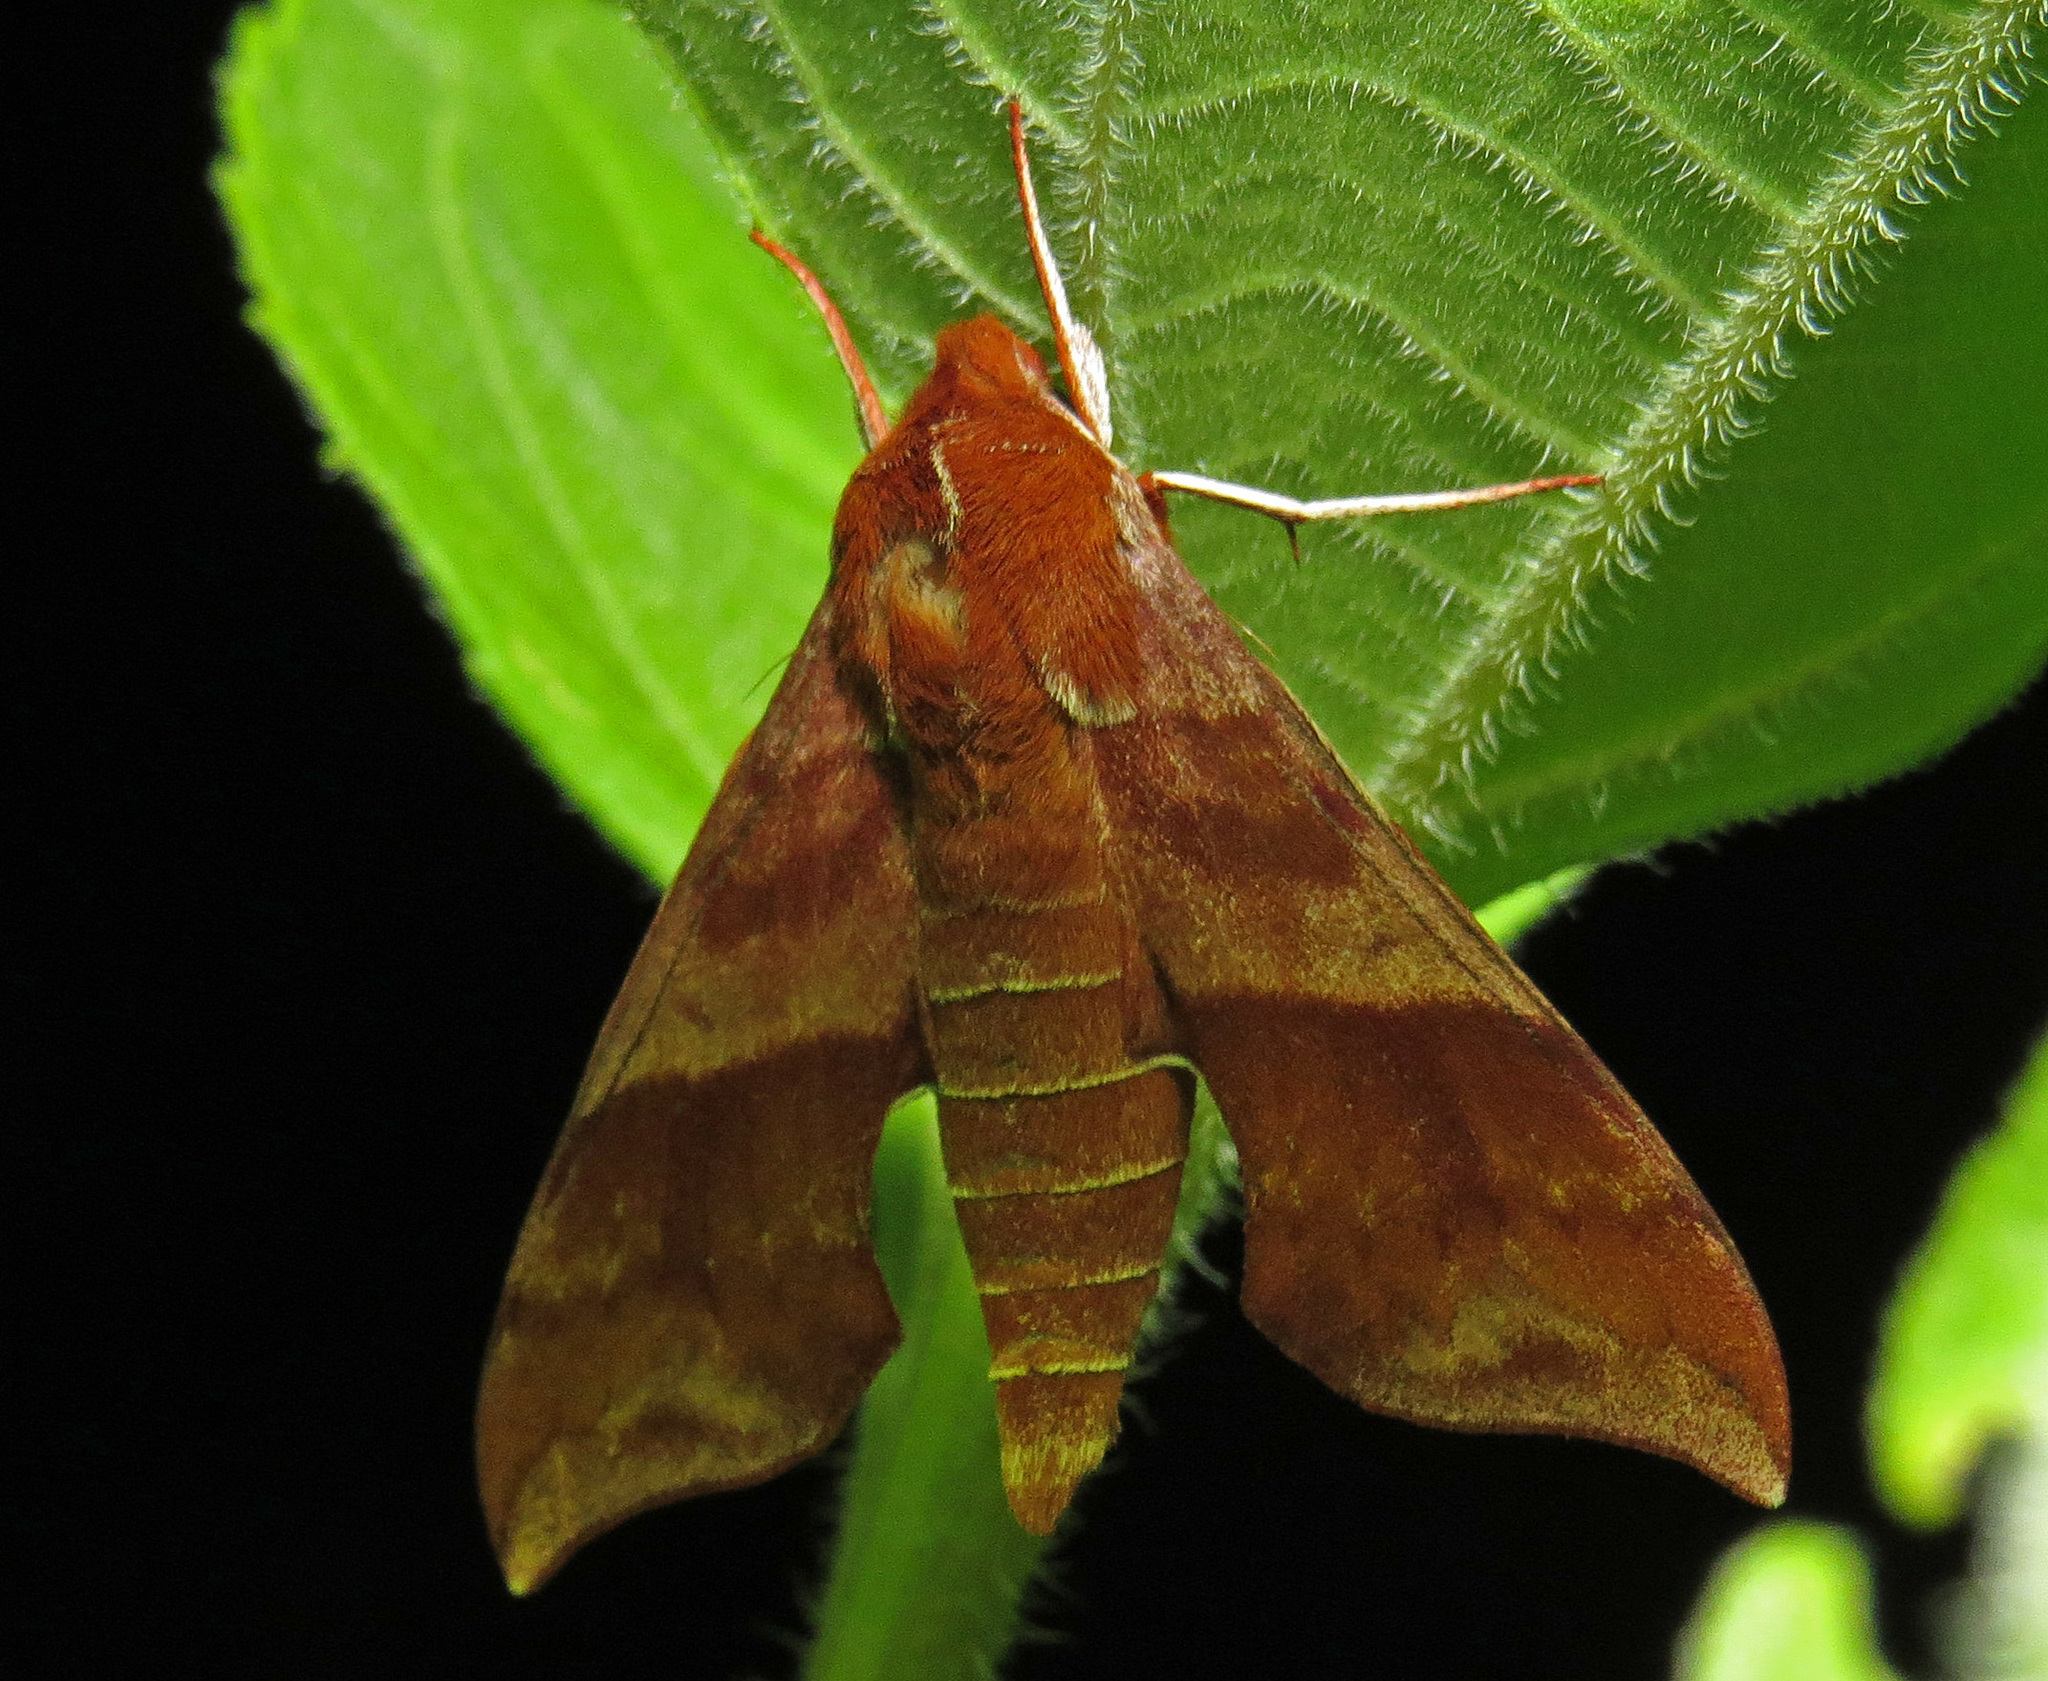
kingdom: Animalia
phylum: Arthropoda
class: Insecta
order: Lepidoptera
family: Sphingidae
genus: Darapsa
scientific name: Darapsa choerilus
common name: Azalea sphinx
